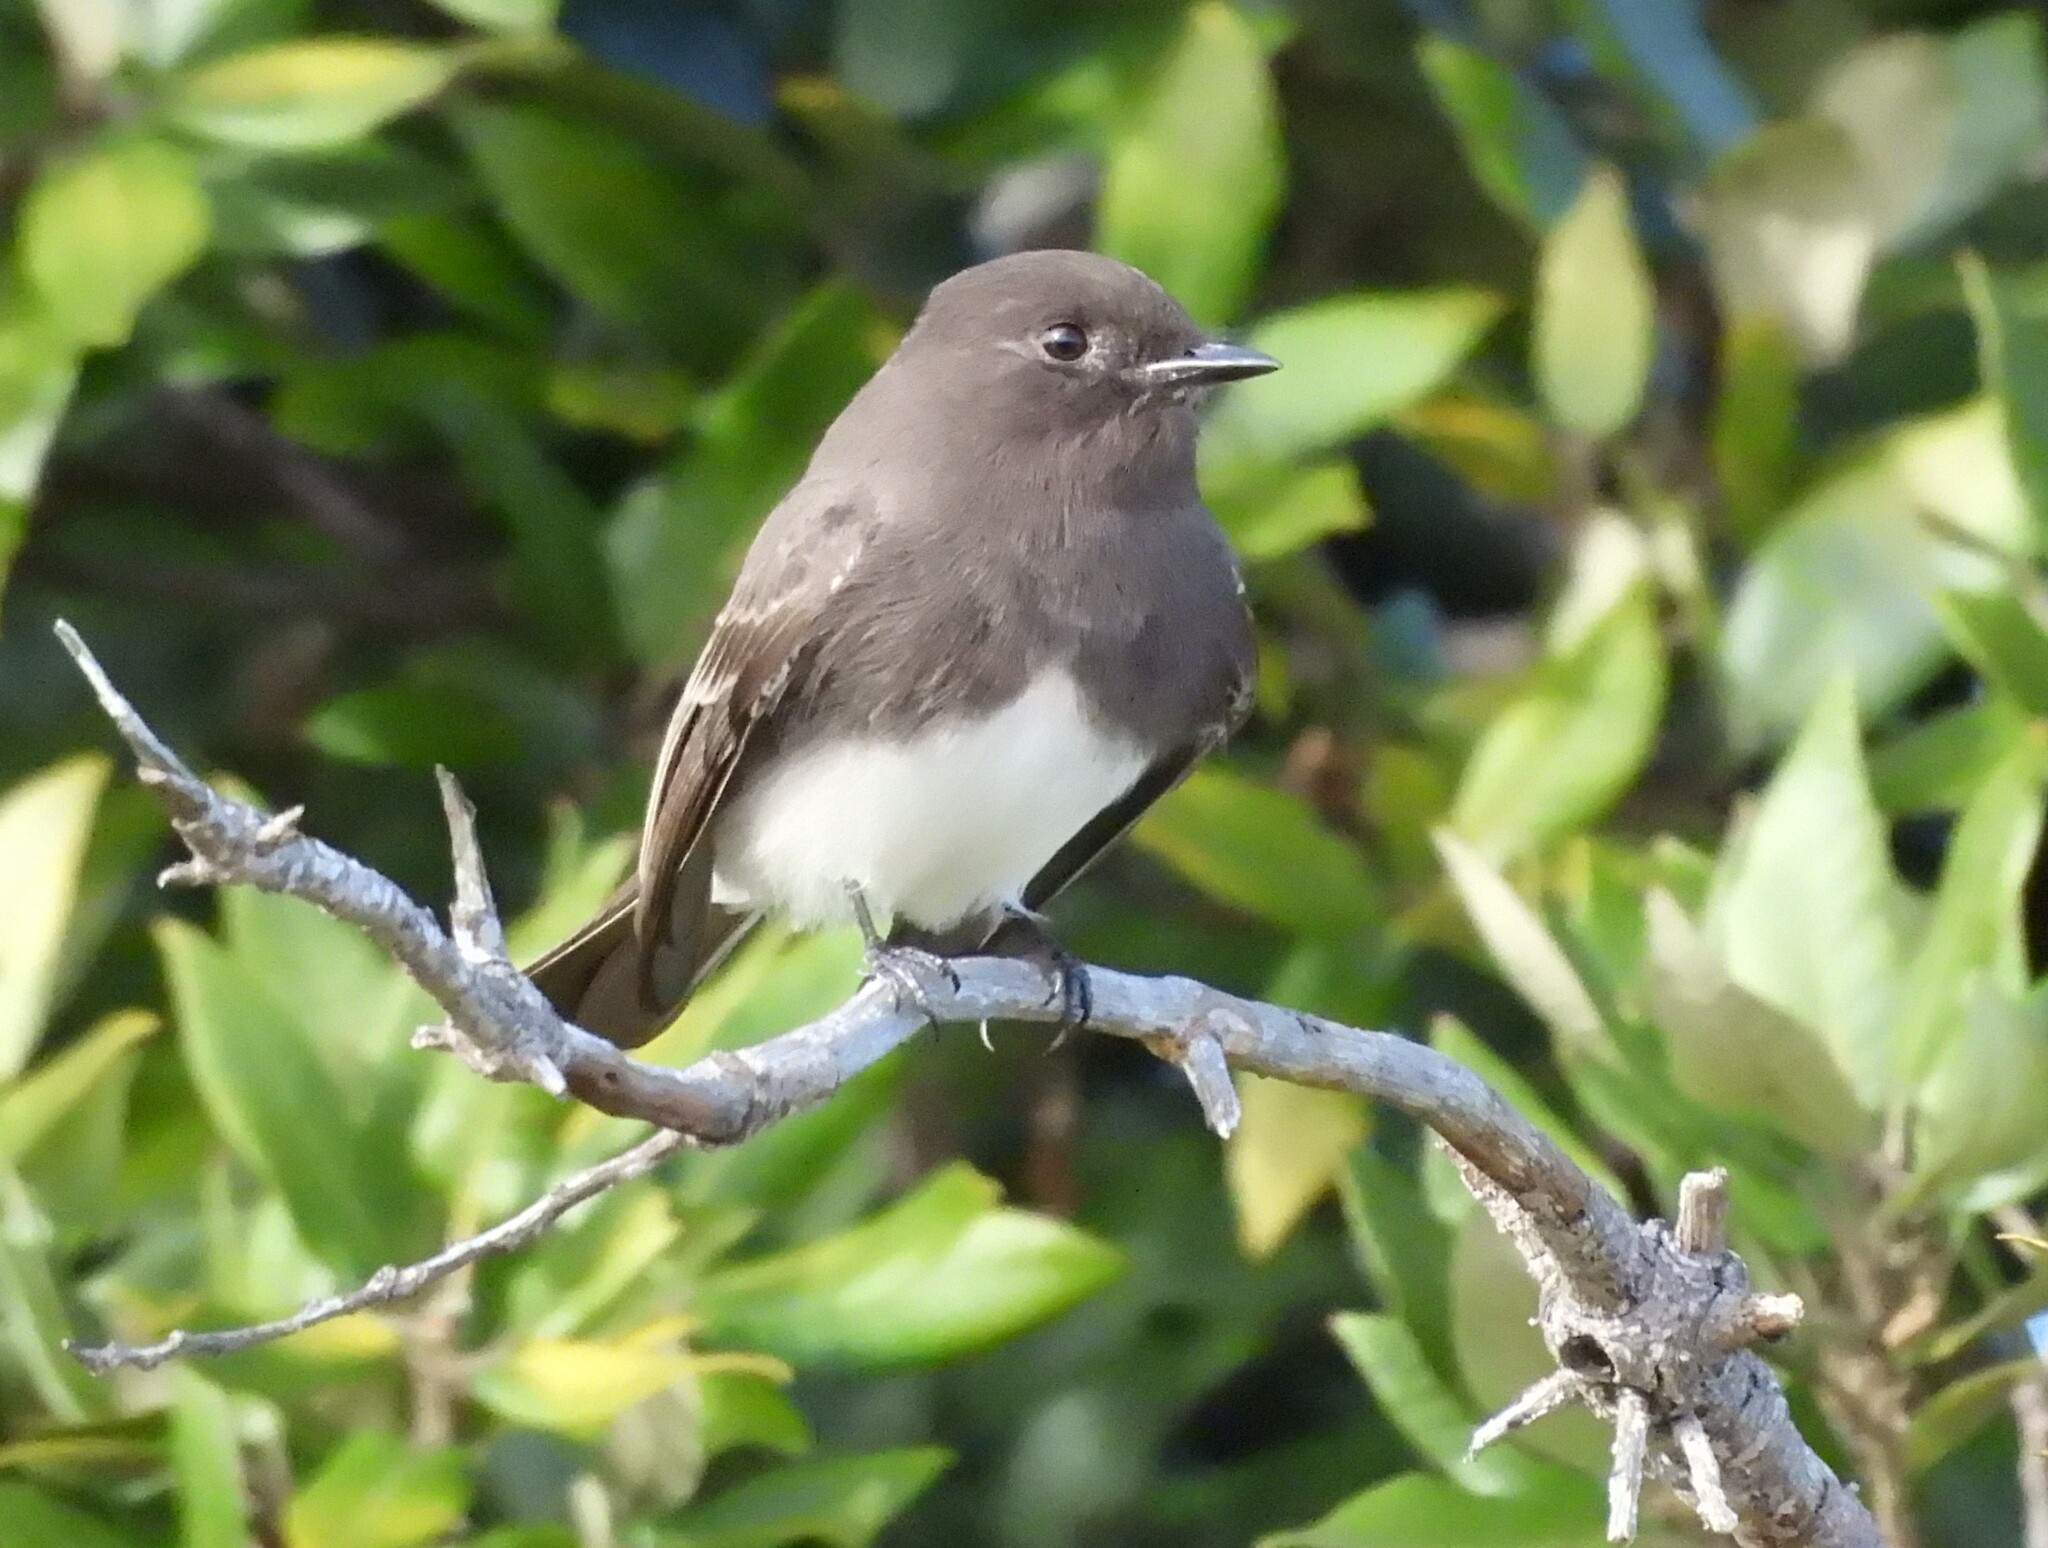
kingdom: Animalia
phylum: Chordata
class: Aves
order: Passeriformes
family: Tyrannidae
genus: Sayornis
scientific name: Sayornis nigricans
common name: Black phoebe
